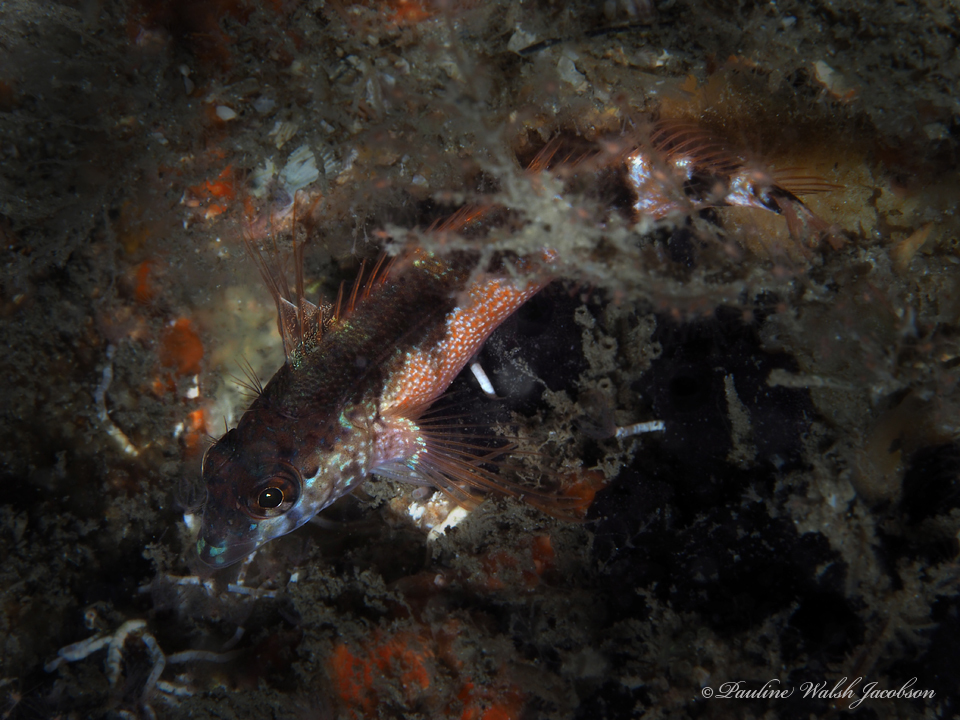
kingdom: Animalia
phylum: Chordata
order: Perciformes
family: Labrisomidae
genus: Malacoctenus
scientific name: Malacoctenus triangulatus
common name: Saddled blenny
